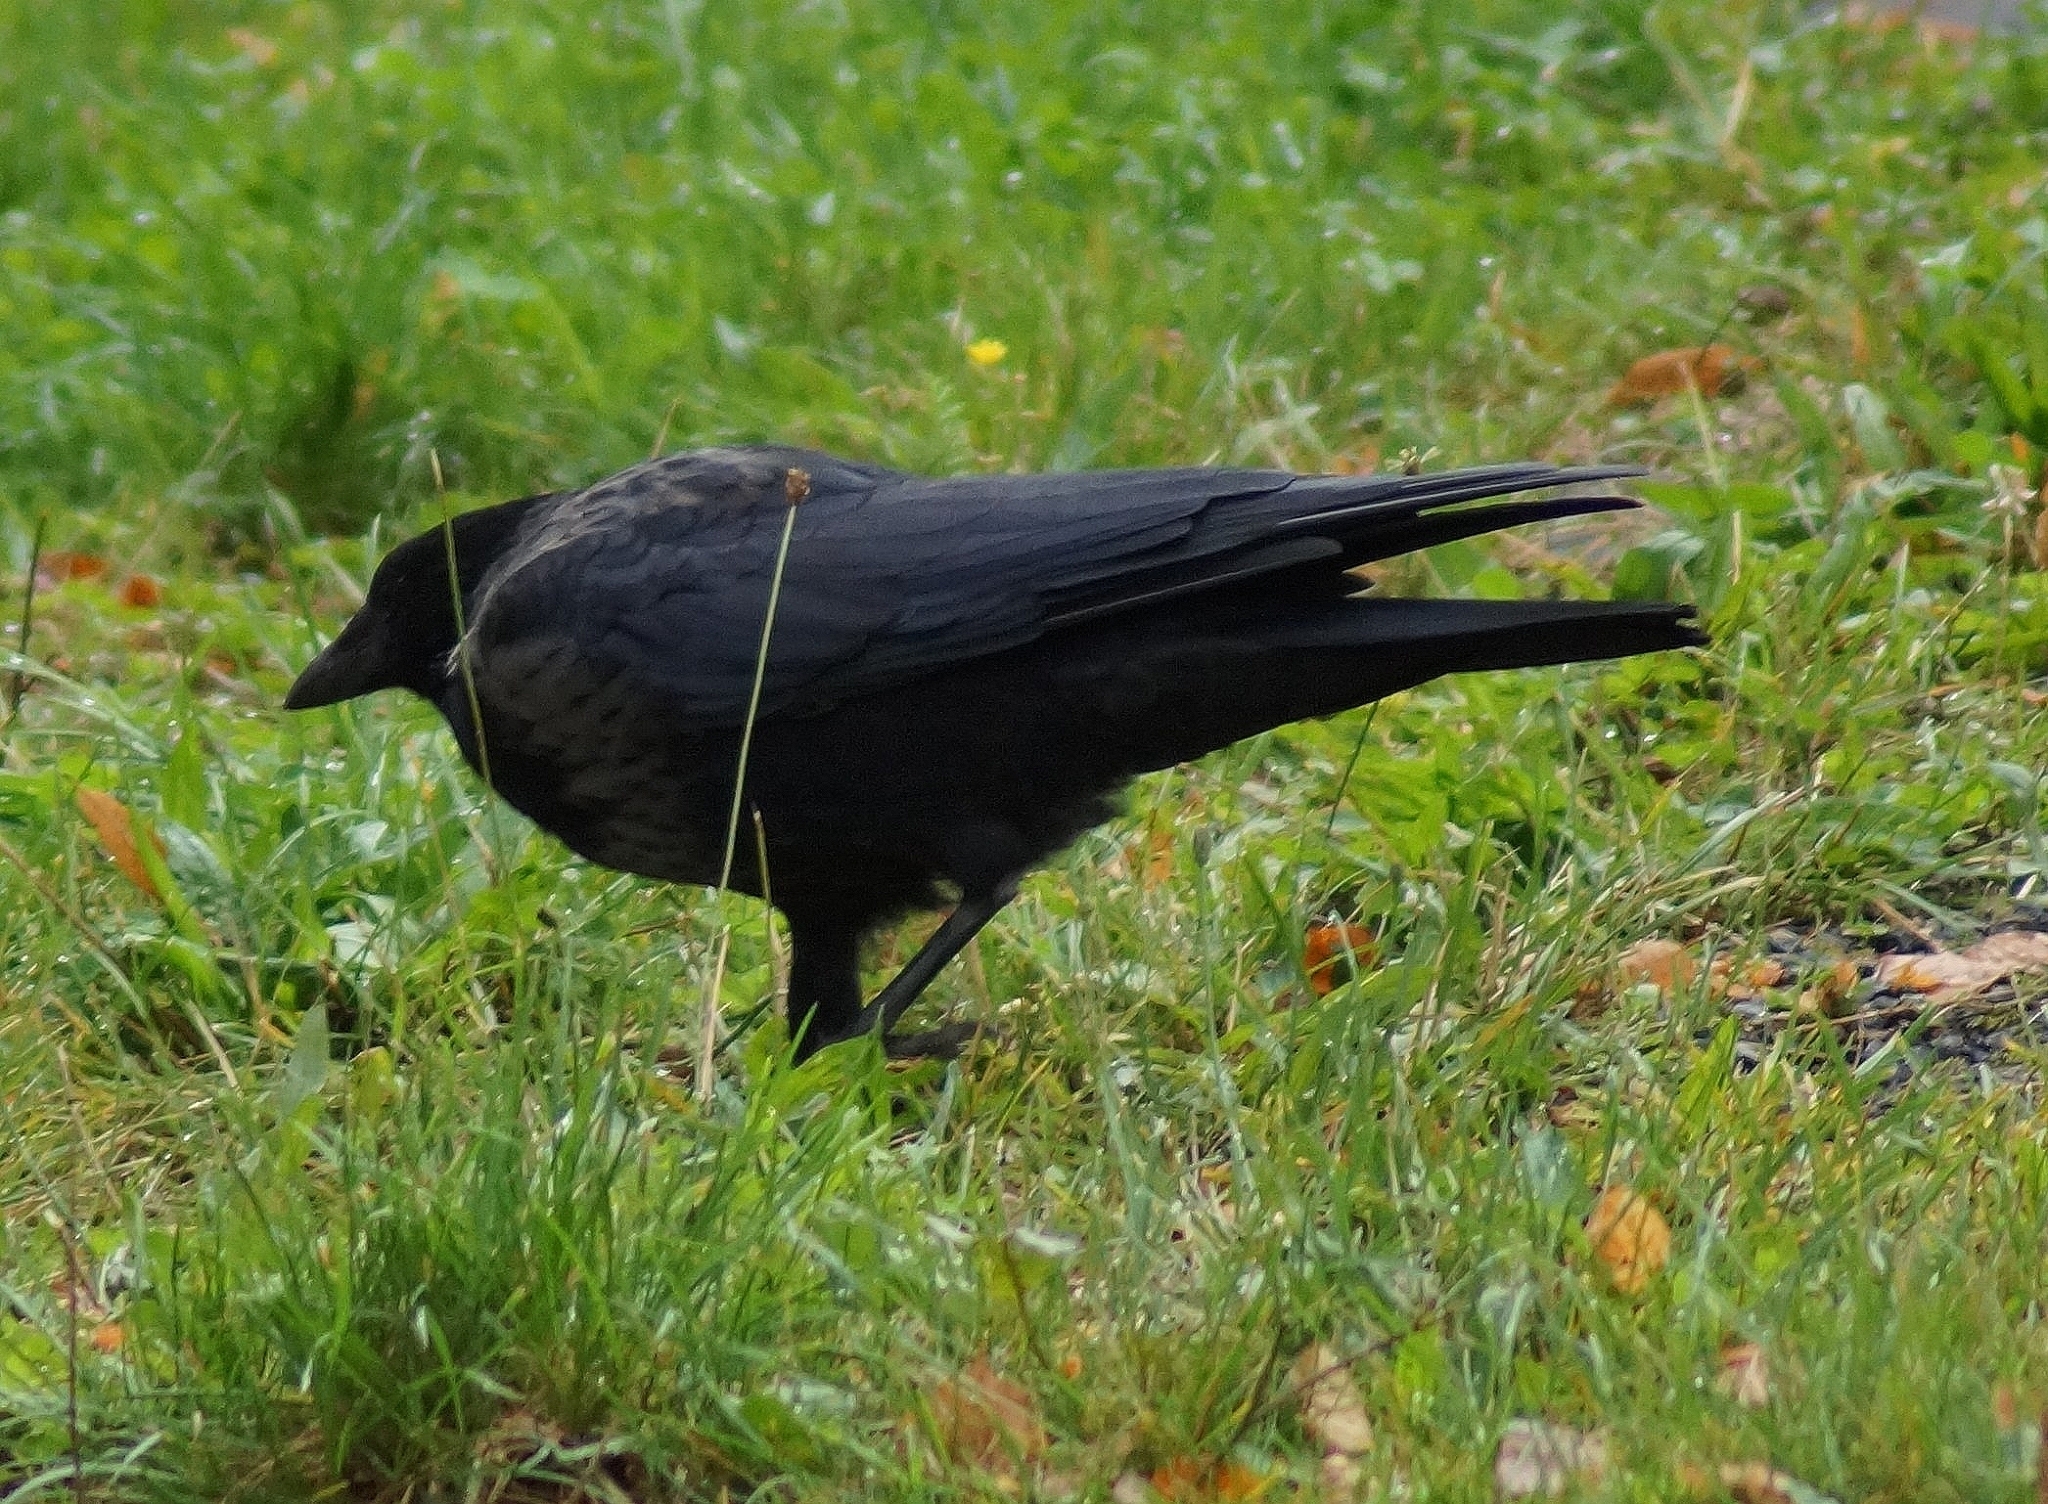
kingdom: Animalia
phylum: Chordata
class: Aves
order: Passeriformes
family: Corvidae
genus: Corvus
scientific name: Corvus
